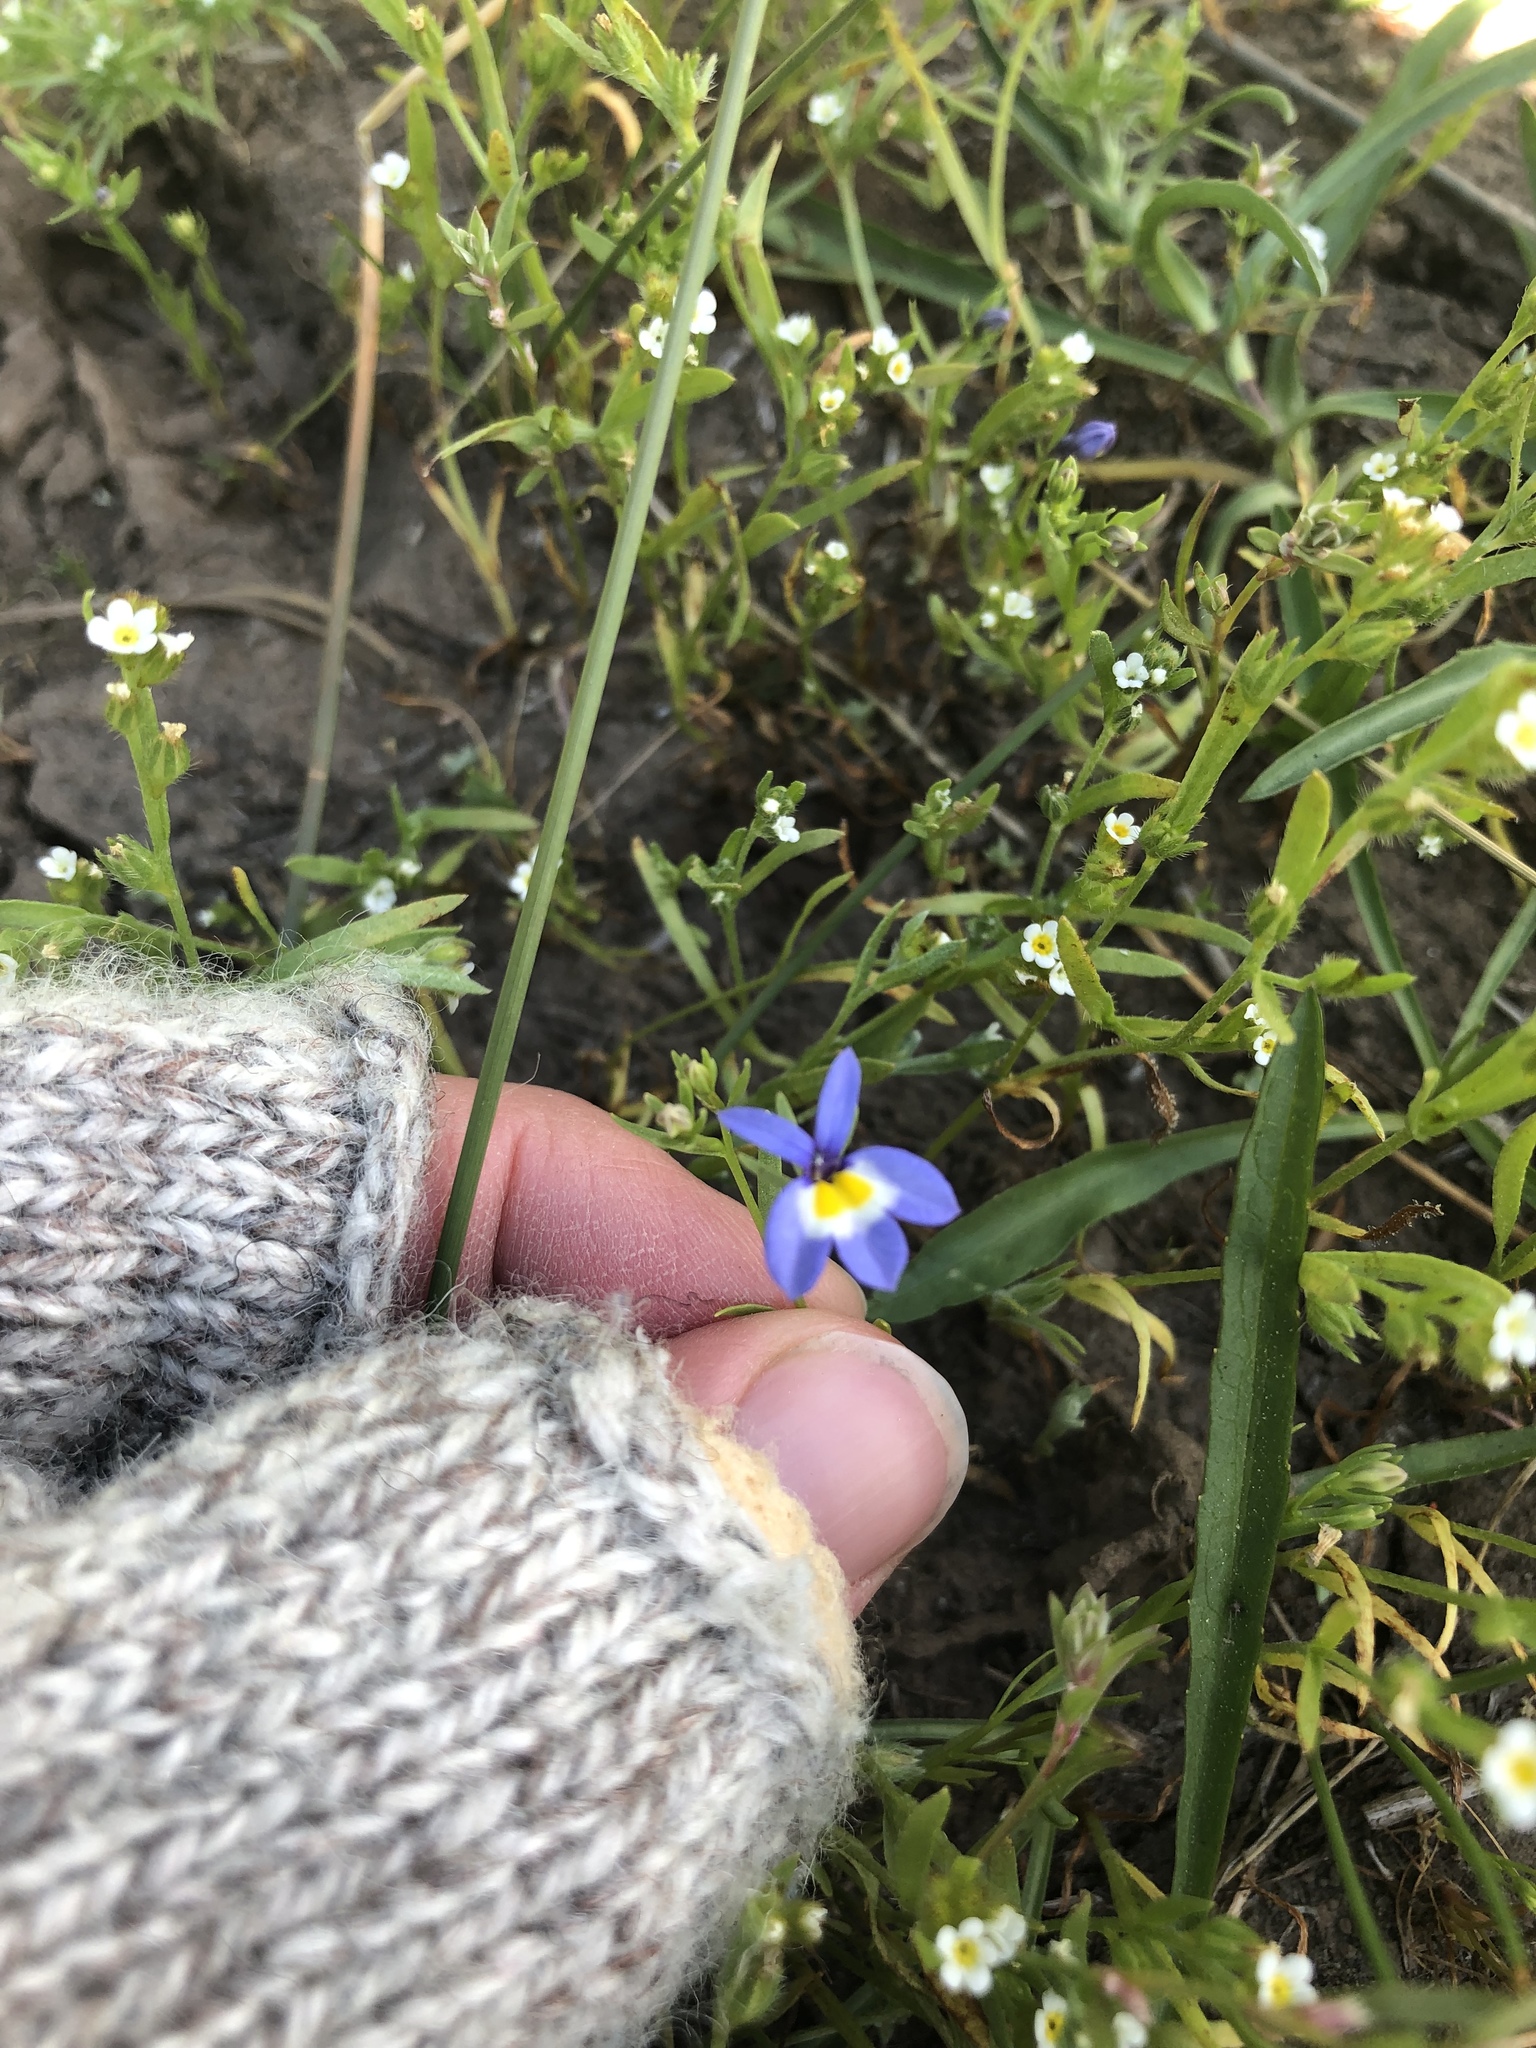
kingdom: Plantae
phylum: Tracheophyta
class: Magnoliopsida
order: Asterales
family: Campanulaceae
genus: Downingia
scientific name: Downingia yina
